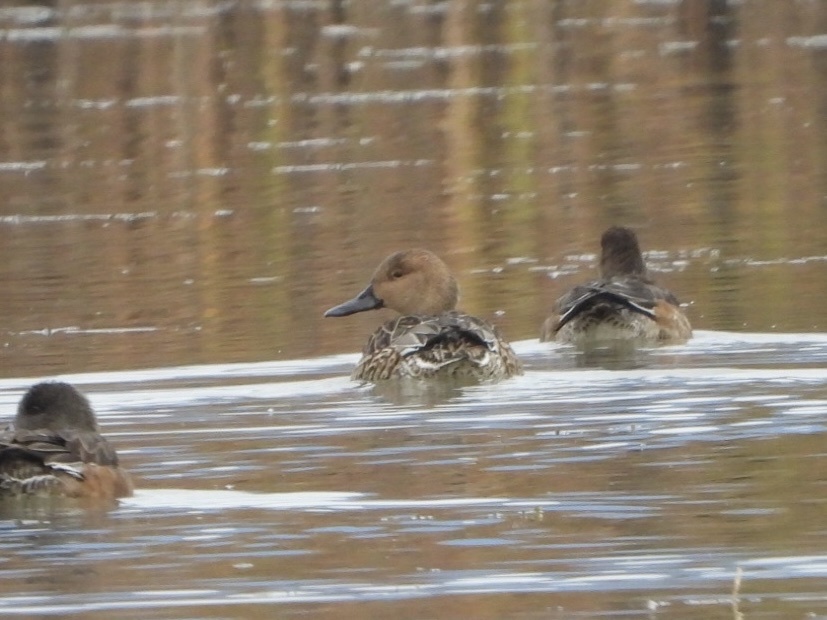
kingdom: Animalia
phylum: Chordata
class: Aves
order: Anseriformes
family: Anatidae
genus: Anas
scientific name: Anas acuta
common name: Northern pintail
